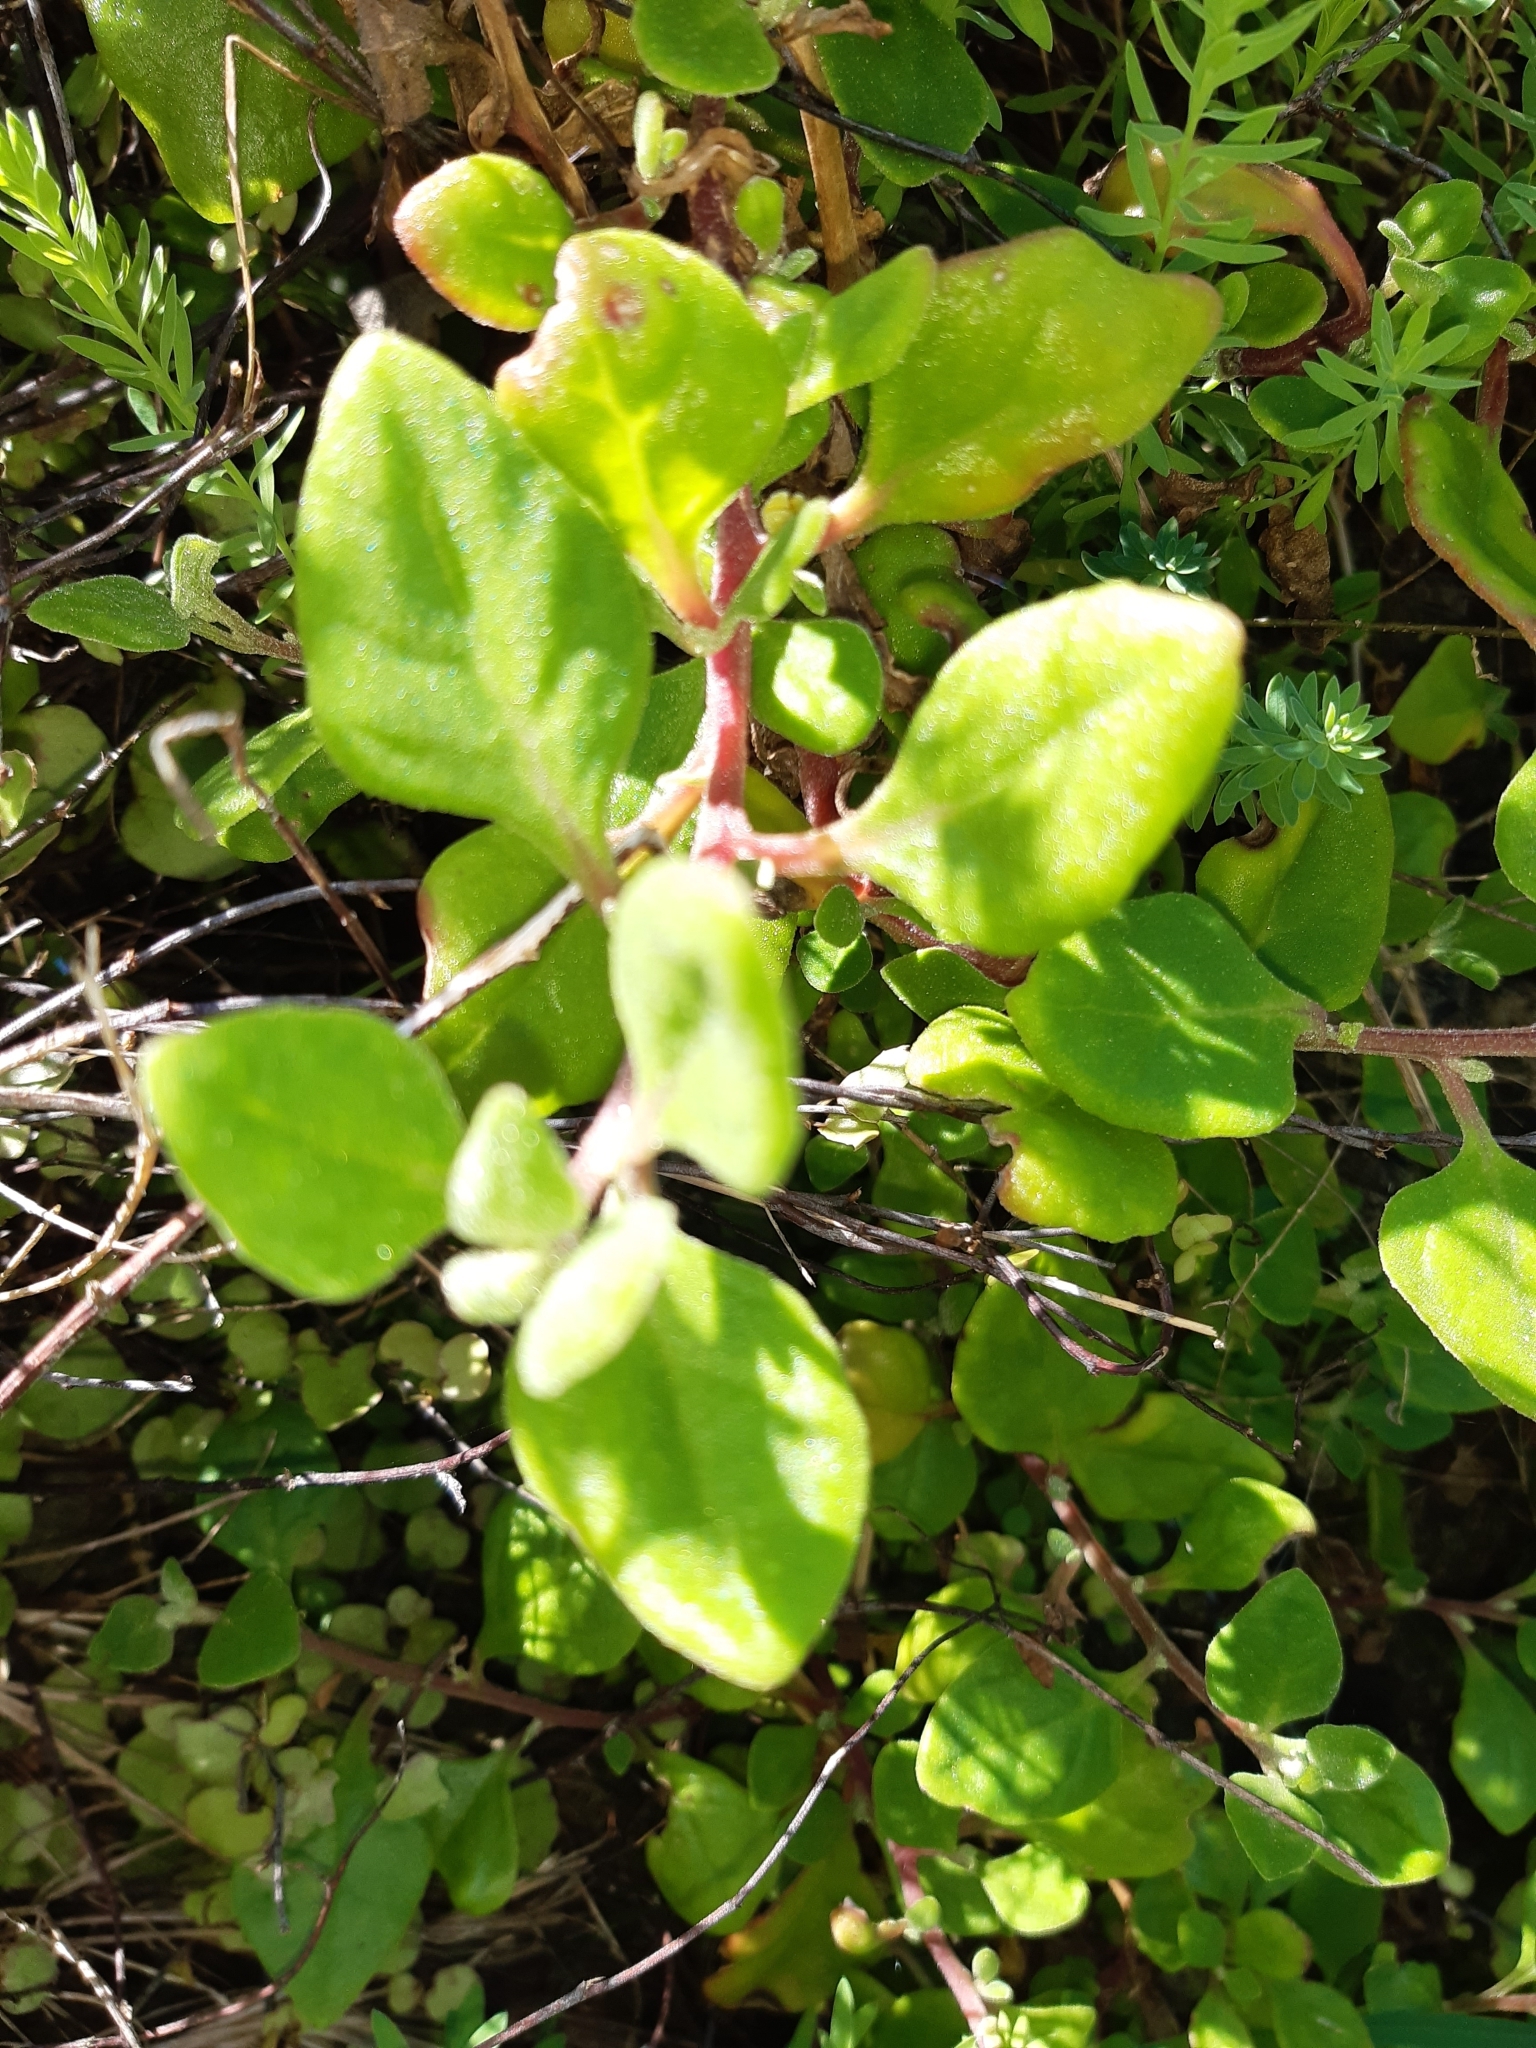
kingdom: Plantae
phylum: Tracheophyta
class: Magnoliopsida
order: Caryophyllales
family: Aizoaceae
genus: Tetragonia
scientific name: Tetragonia implexicoma
